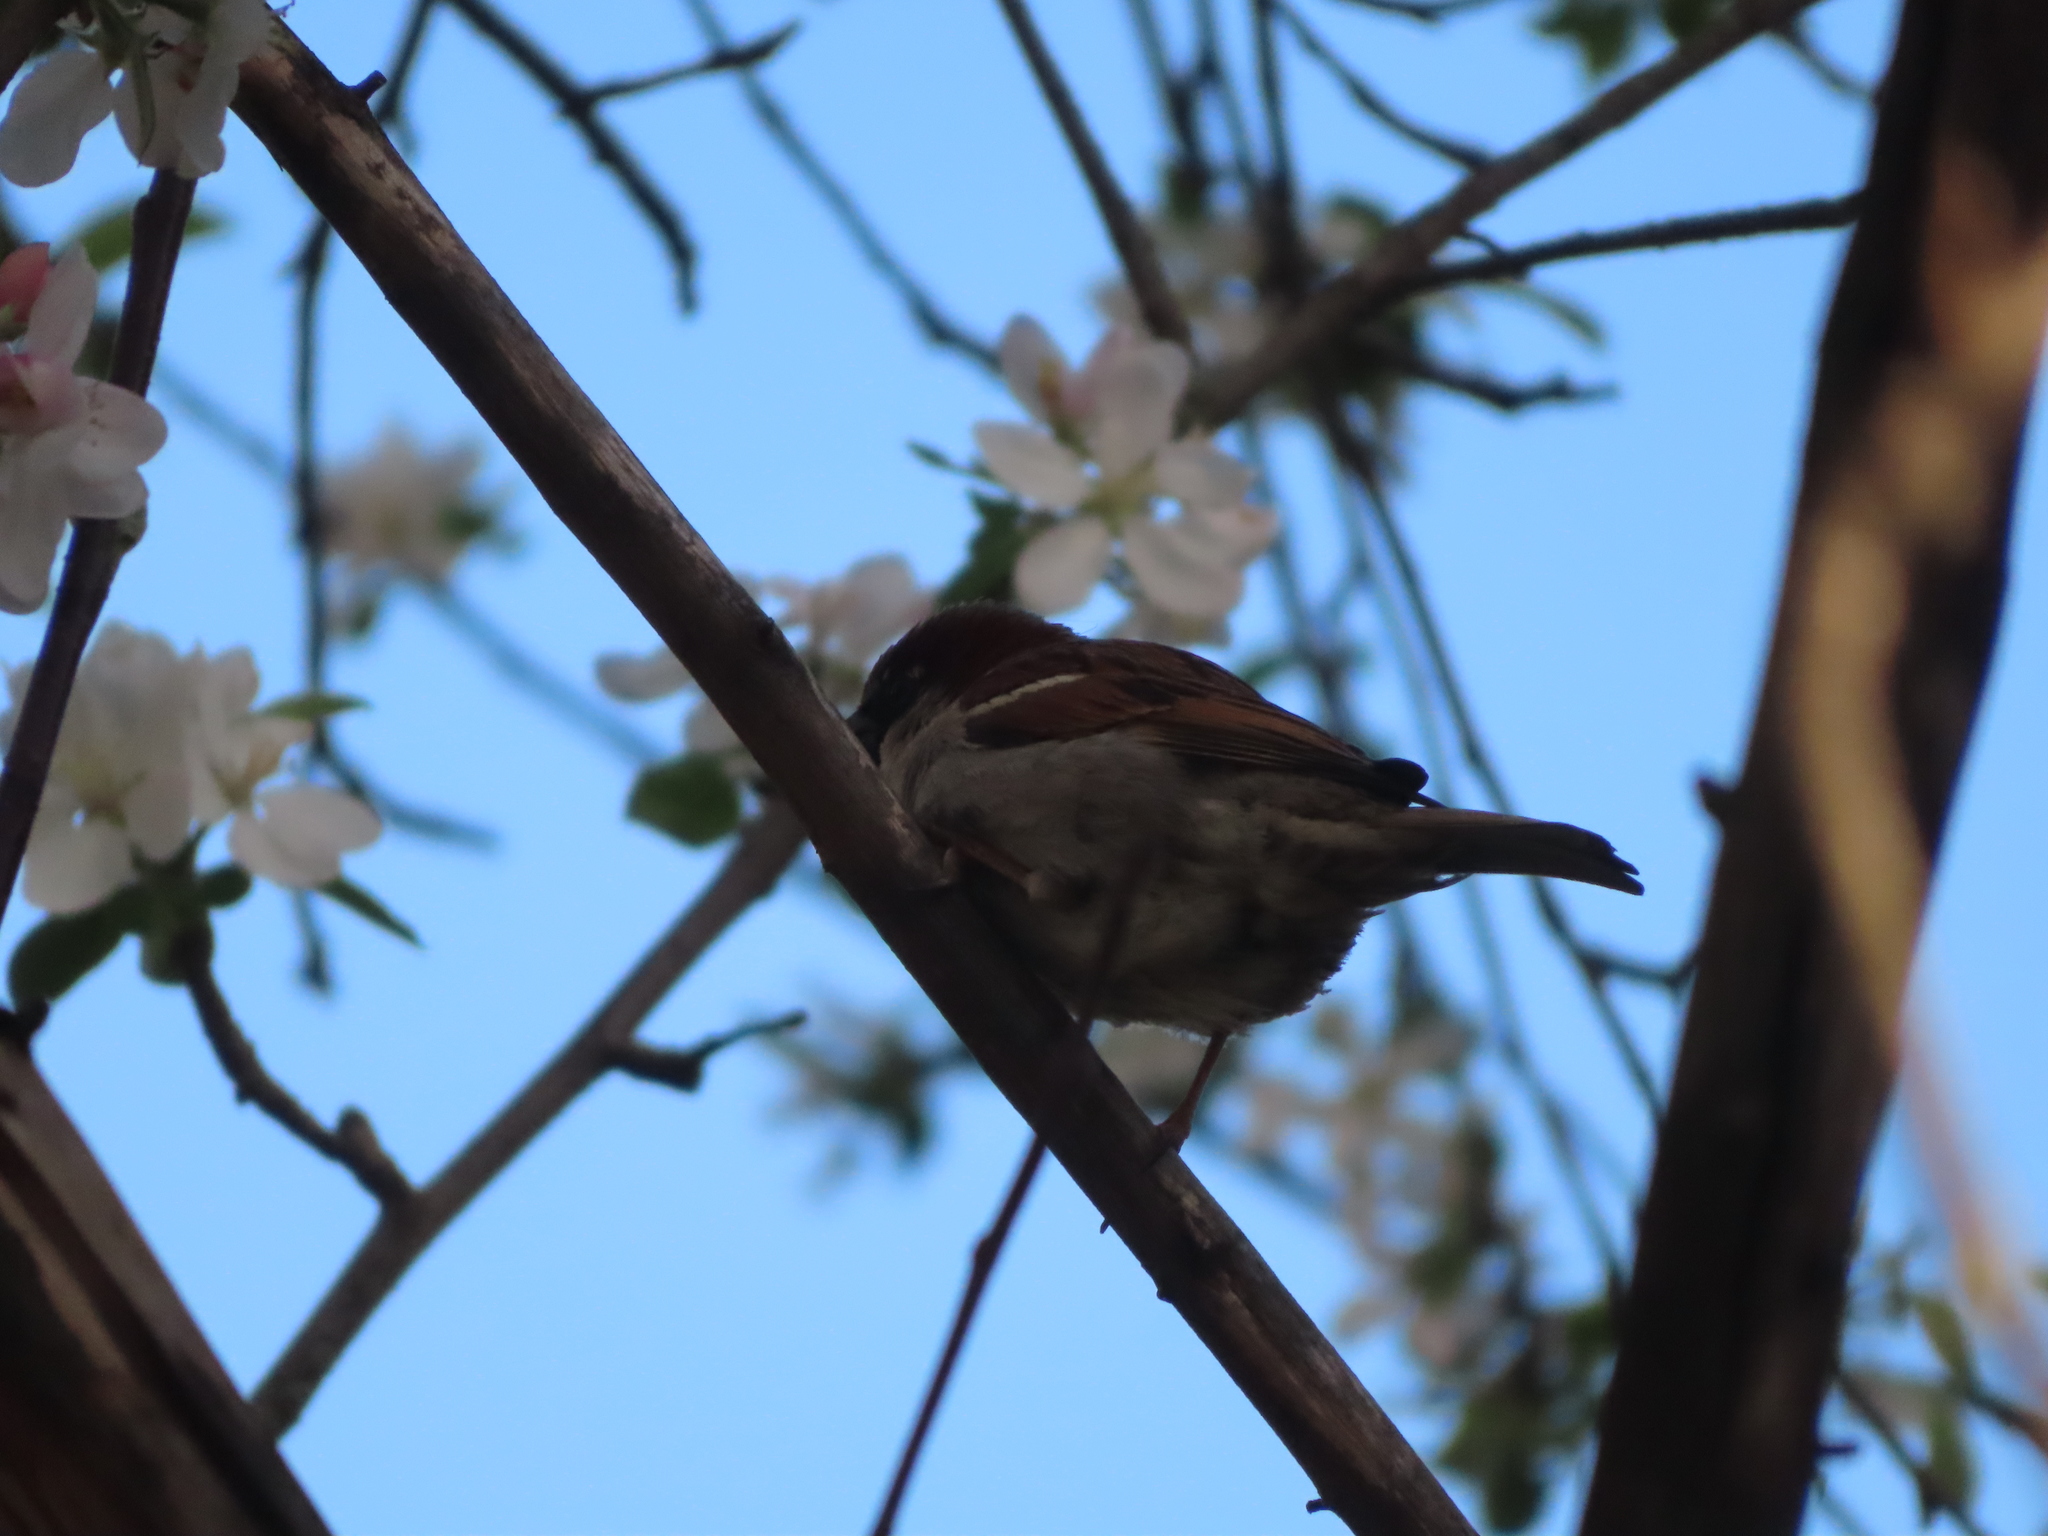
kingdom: Animalia
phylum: Chordata
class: Aves
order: Passeriformes
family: Passeridae
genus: Passer
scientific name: Passer domesticus
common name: House sparrow
